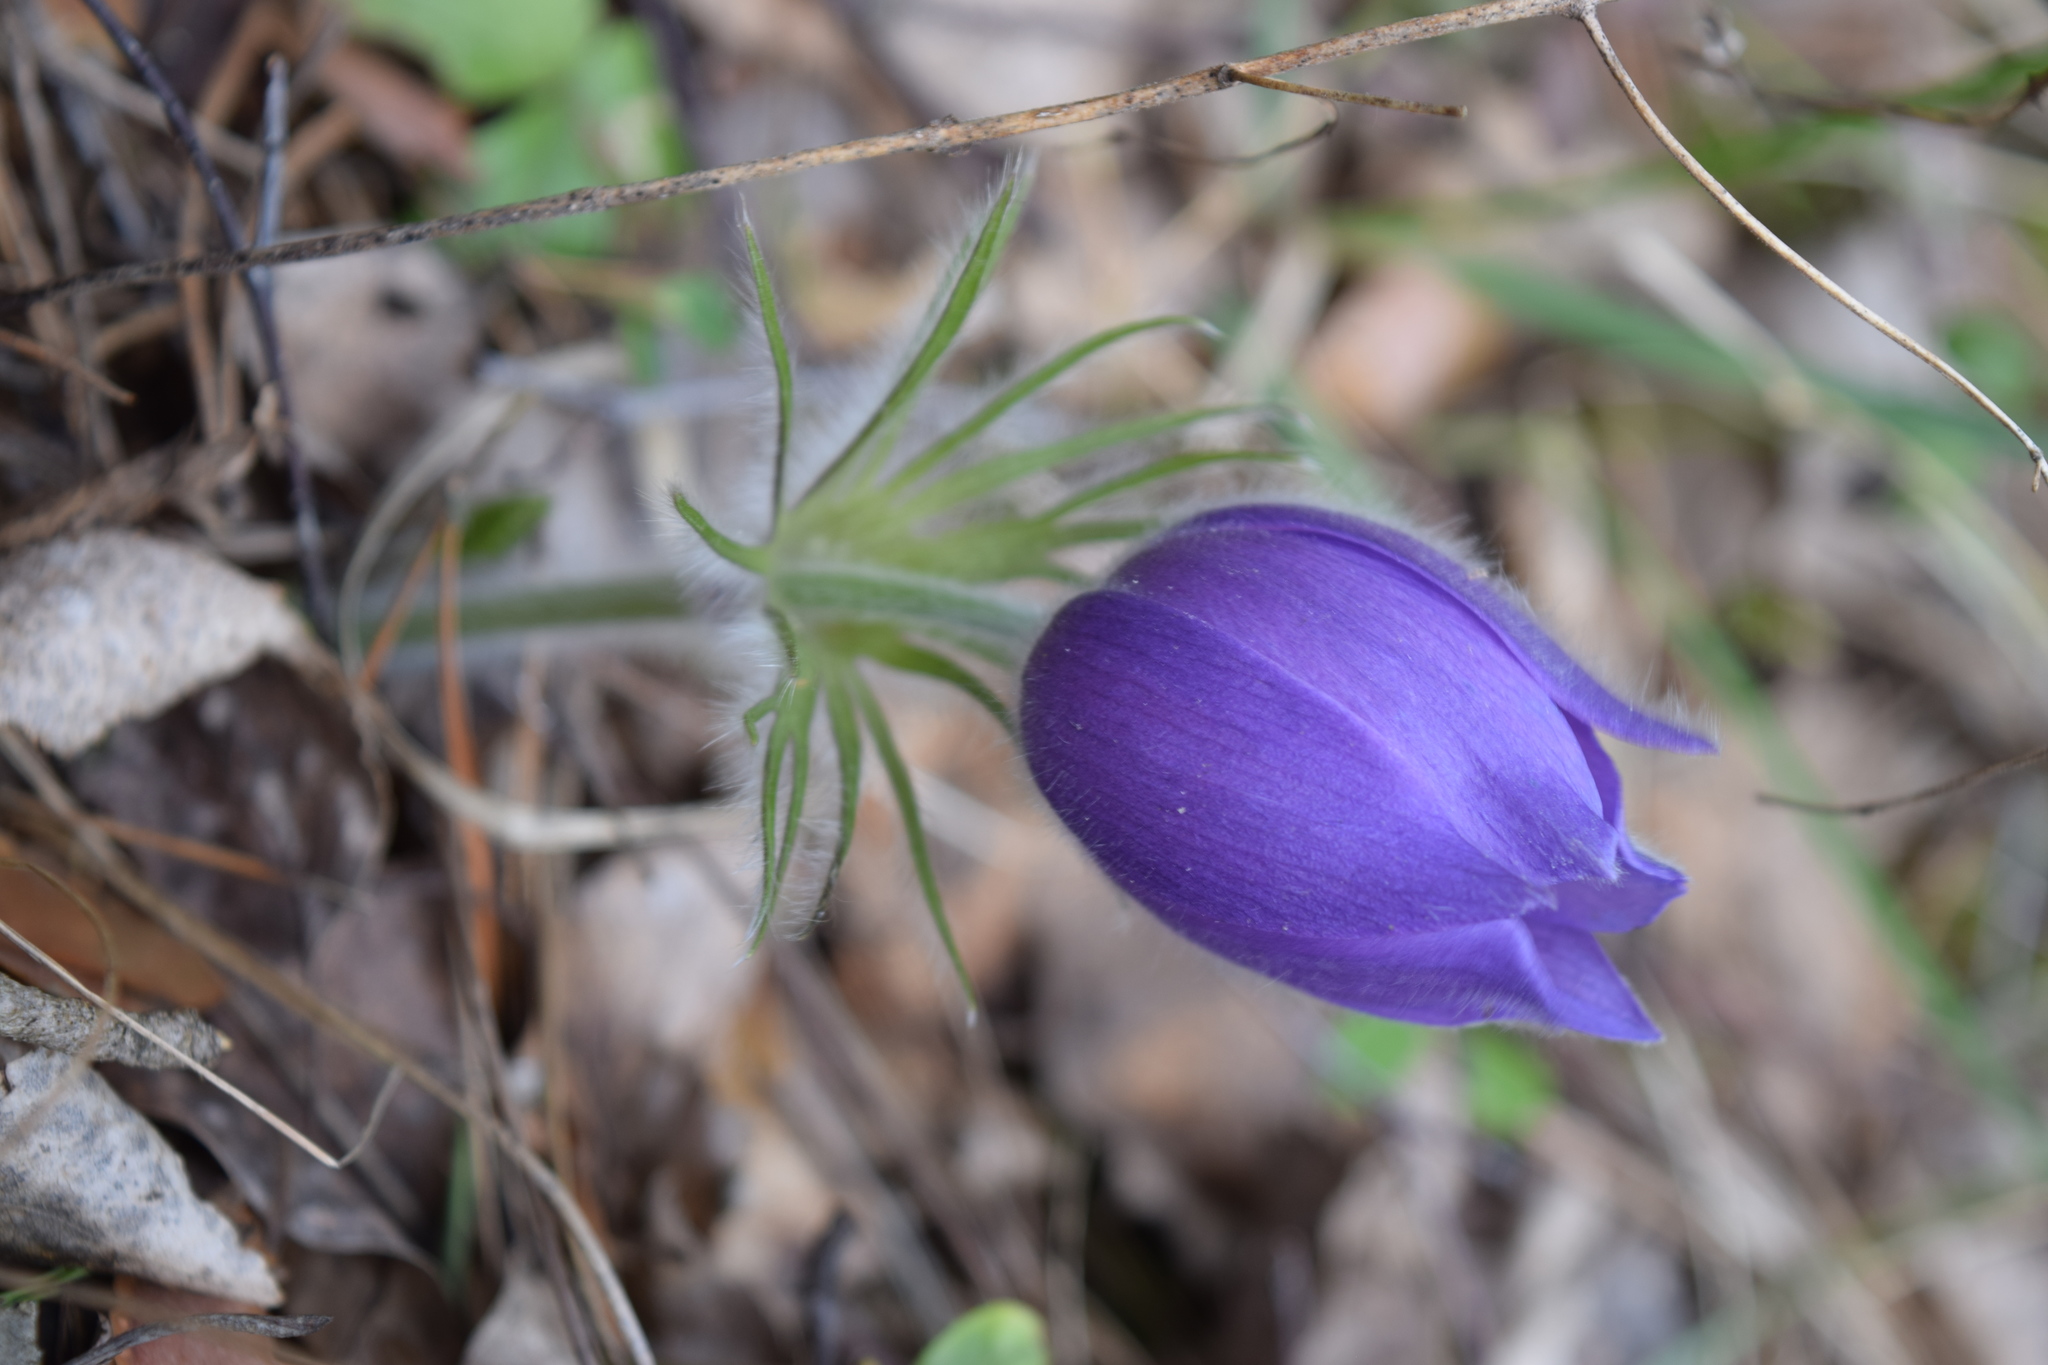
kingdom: Plantae
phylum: Tracheophyta
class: Magnoliopsida
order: Ranunculales
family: Ranunculaceae
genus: Pulsatilla
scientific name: Pulsatilla patens
